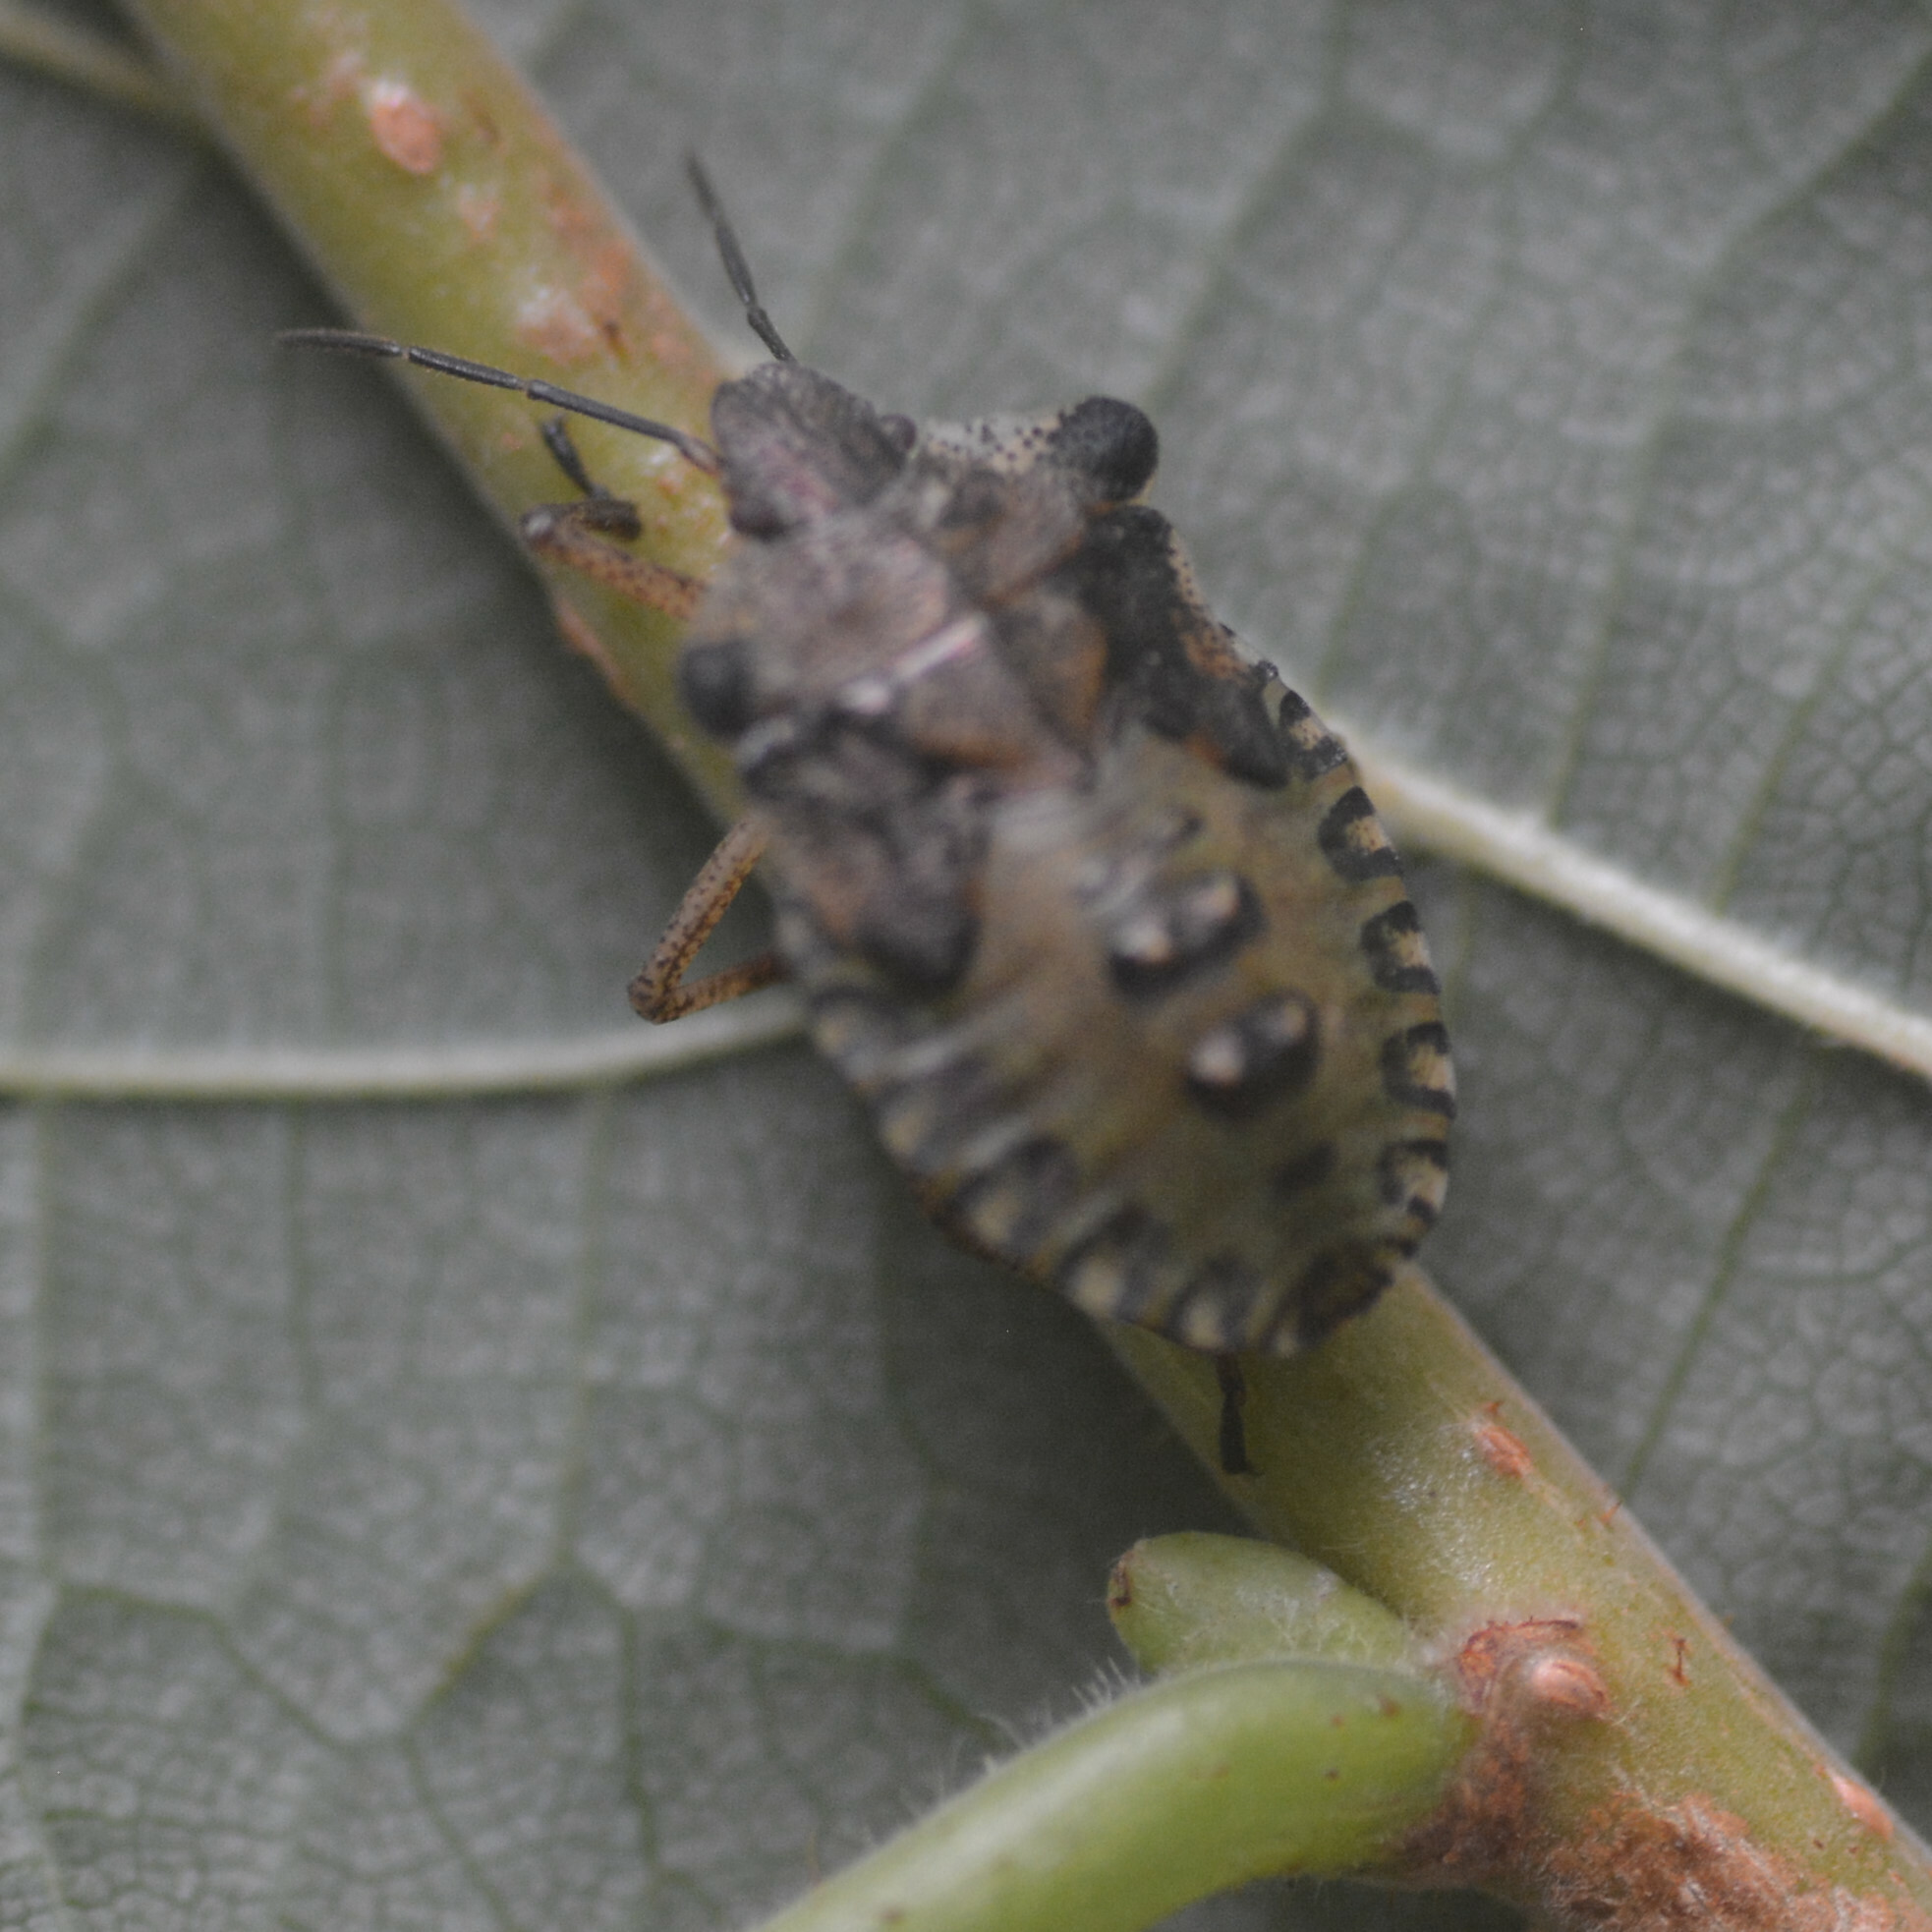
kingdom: Animalia
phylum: Arthropoda
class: Insecta
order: Hemiptera
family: Pentatomidae
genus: Pentatoma
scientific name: Pentatoma rufipes
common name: Forest bug
